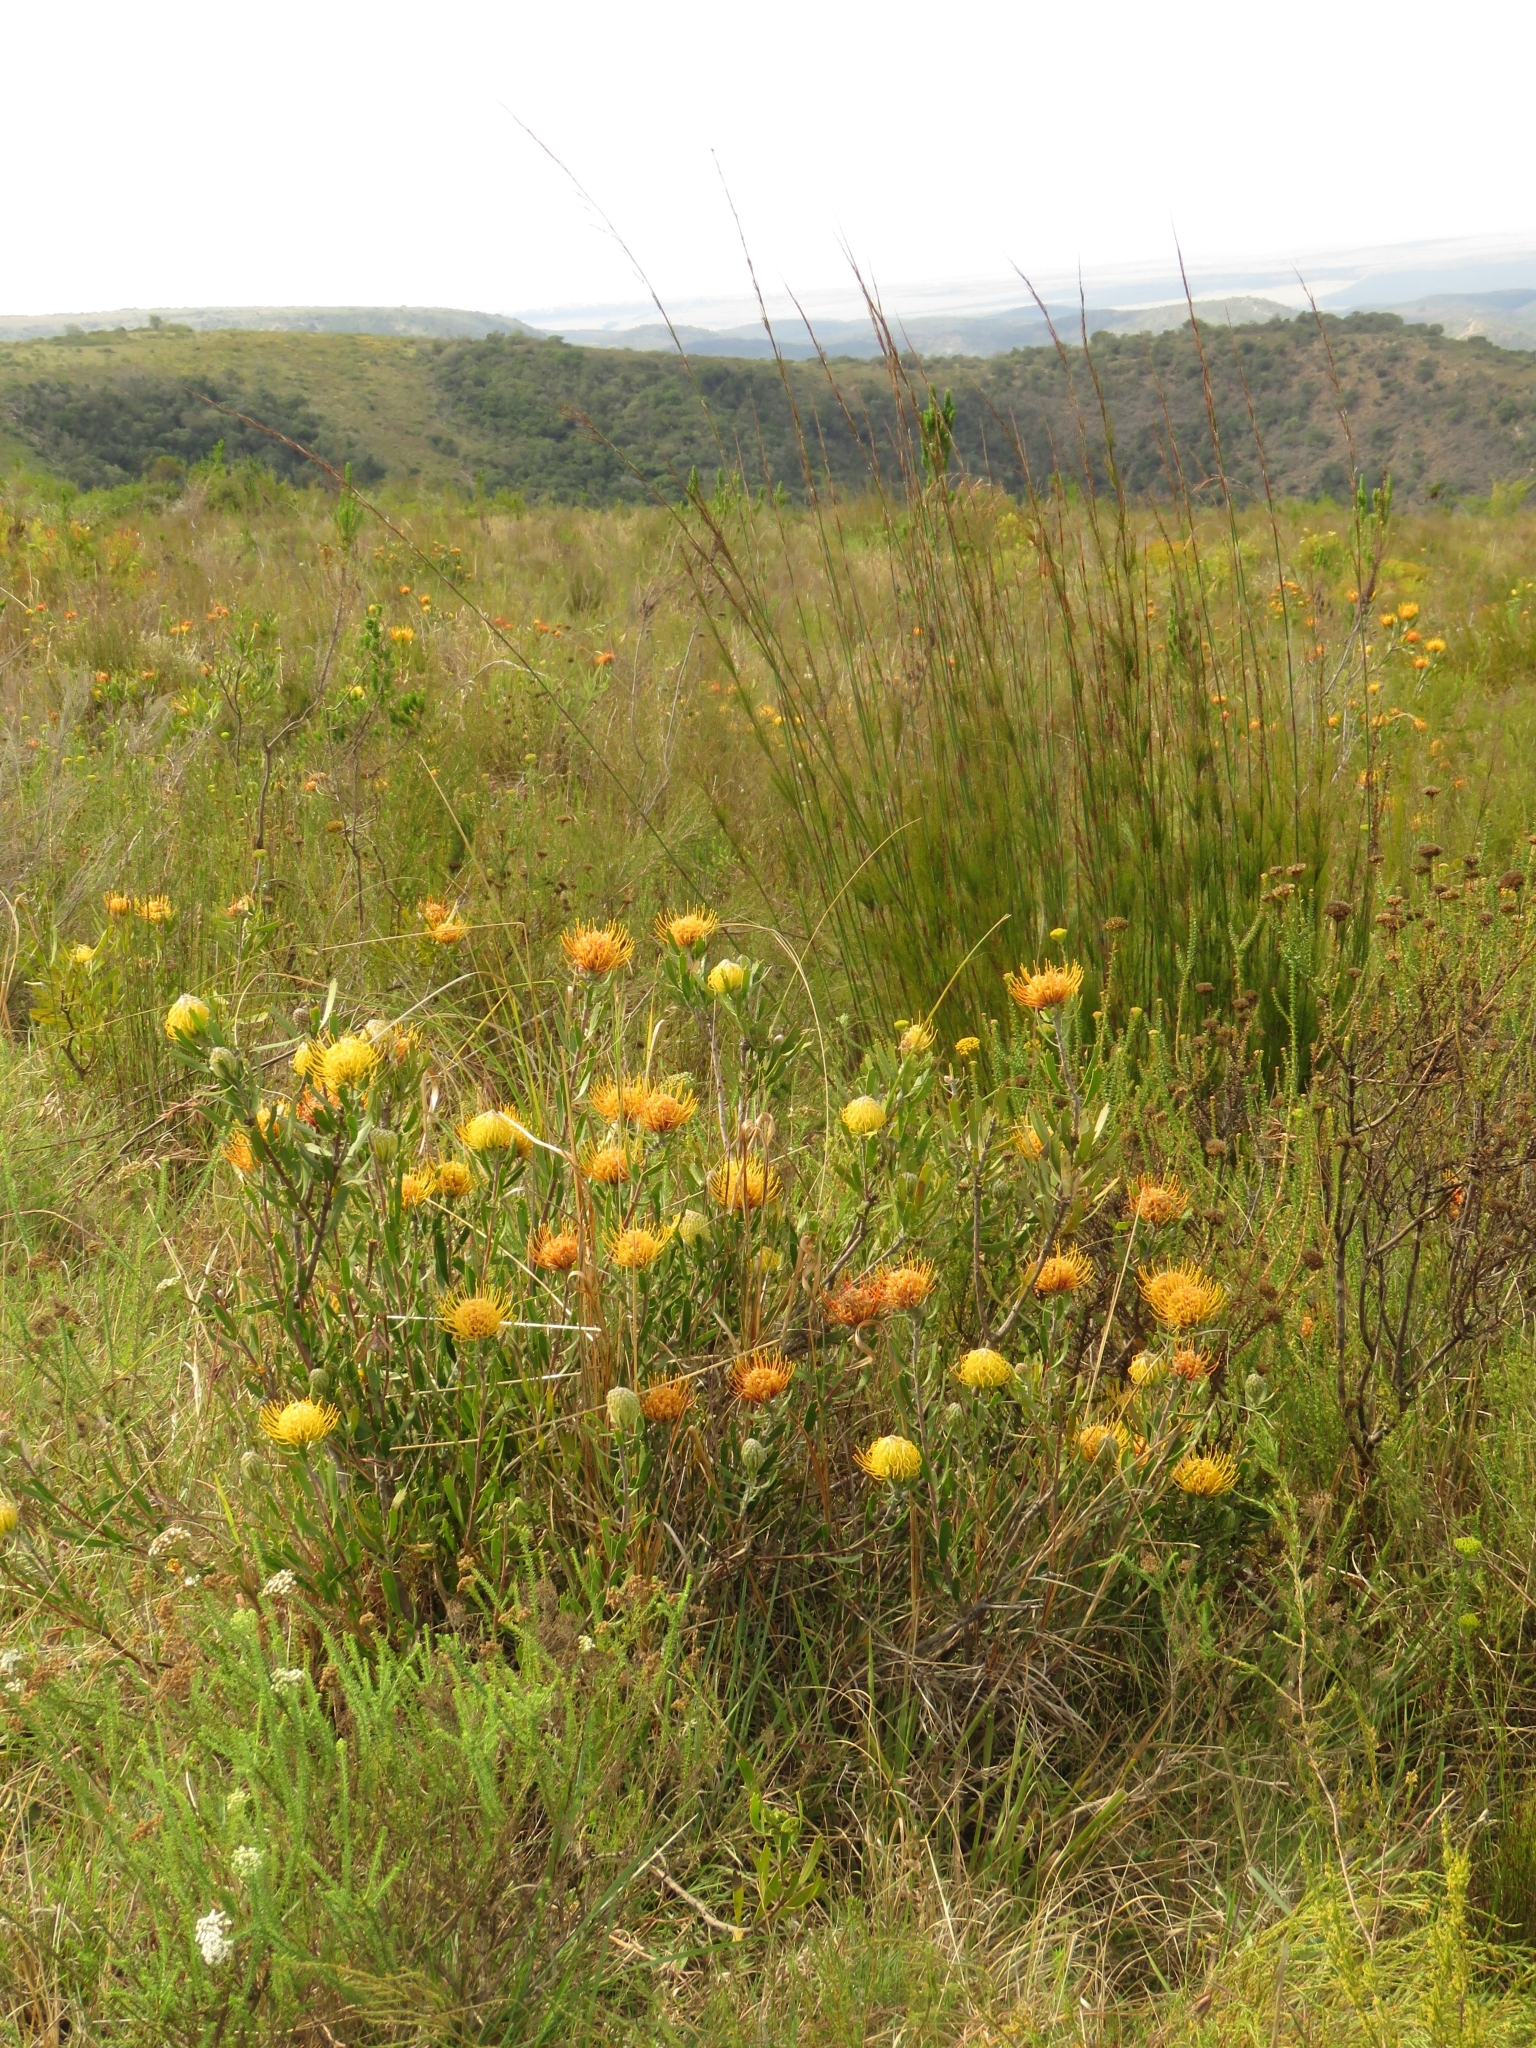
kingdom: Plantae
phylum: Tracheophyta
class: Magnoliopsida
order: Proteales
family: Proteaceae
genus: Leucospermum
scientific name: Leucospermum cuneiforme
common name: Common pincushion
